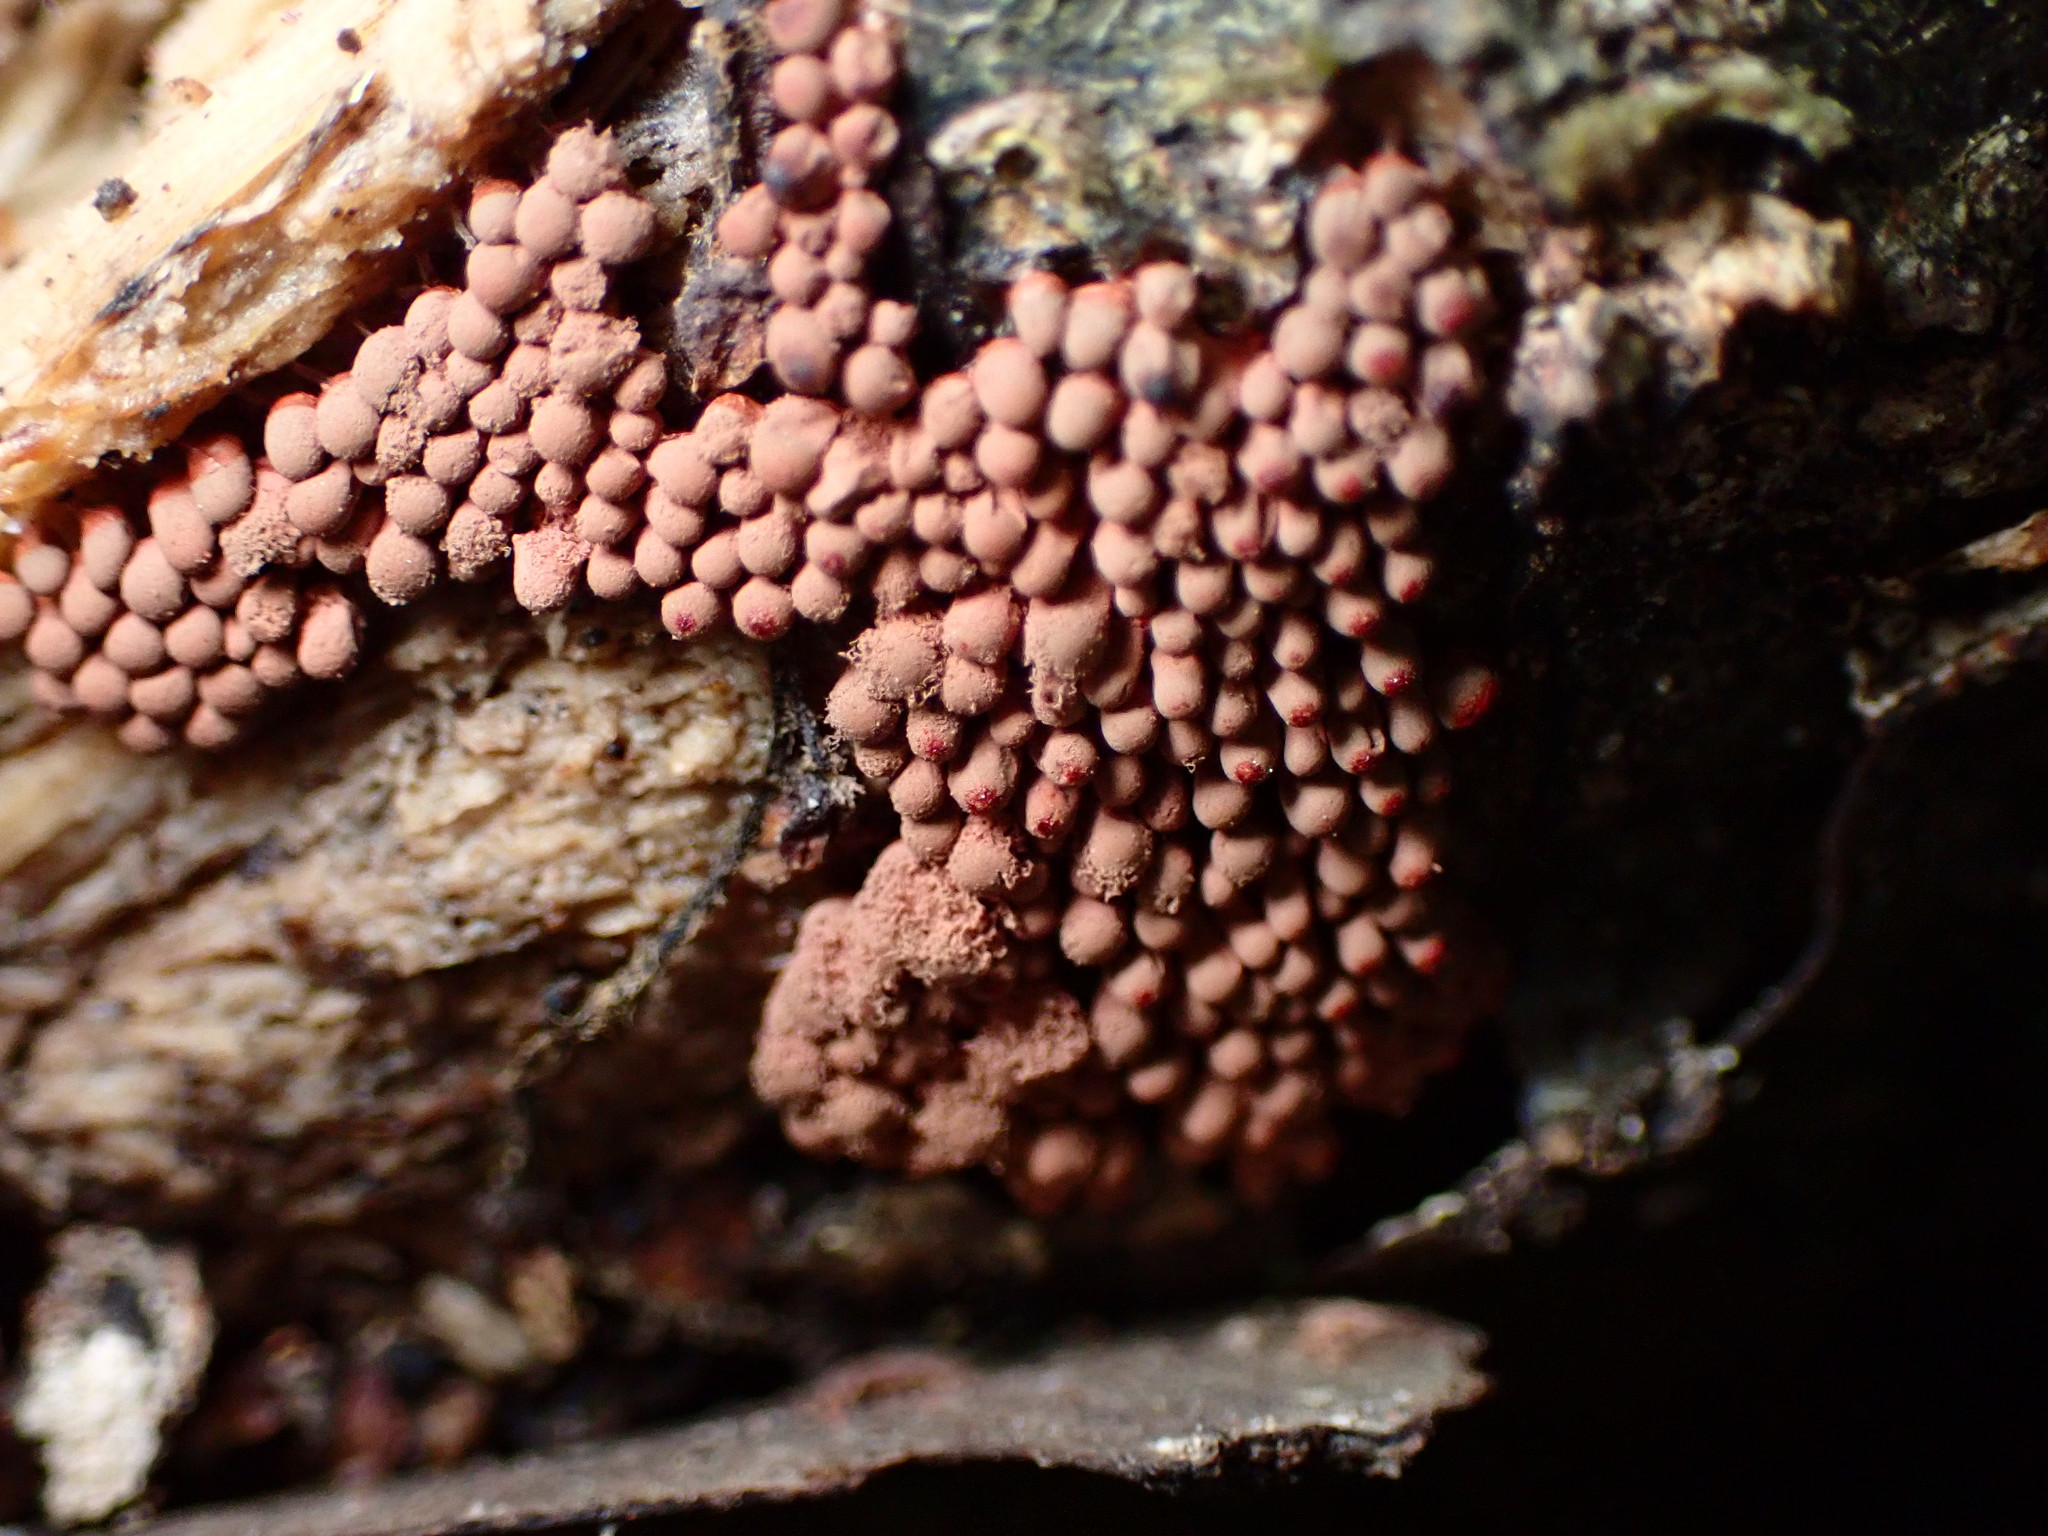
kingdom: Protozoa
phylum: Mycetozoa
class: Myxomycetes
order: Trichiales
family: Arcyriaceae
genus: Arcyria
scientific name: Arcyria denudata
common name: Carnival candy slime mold
